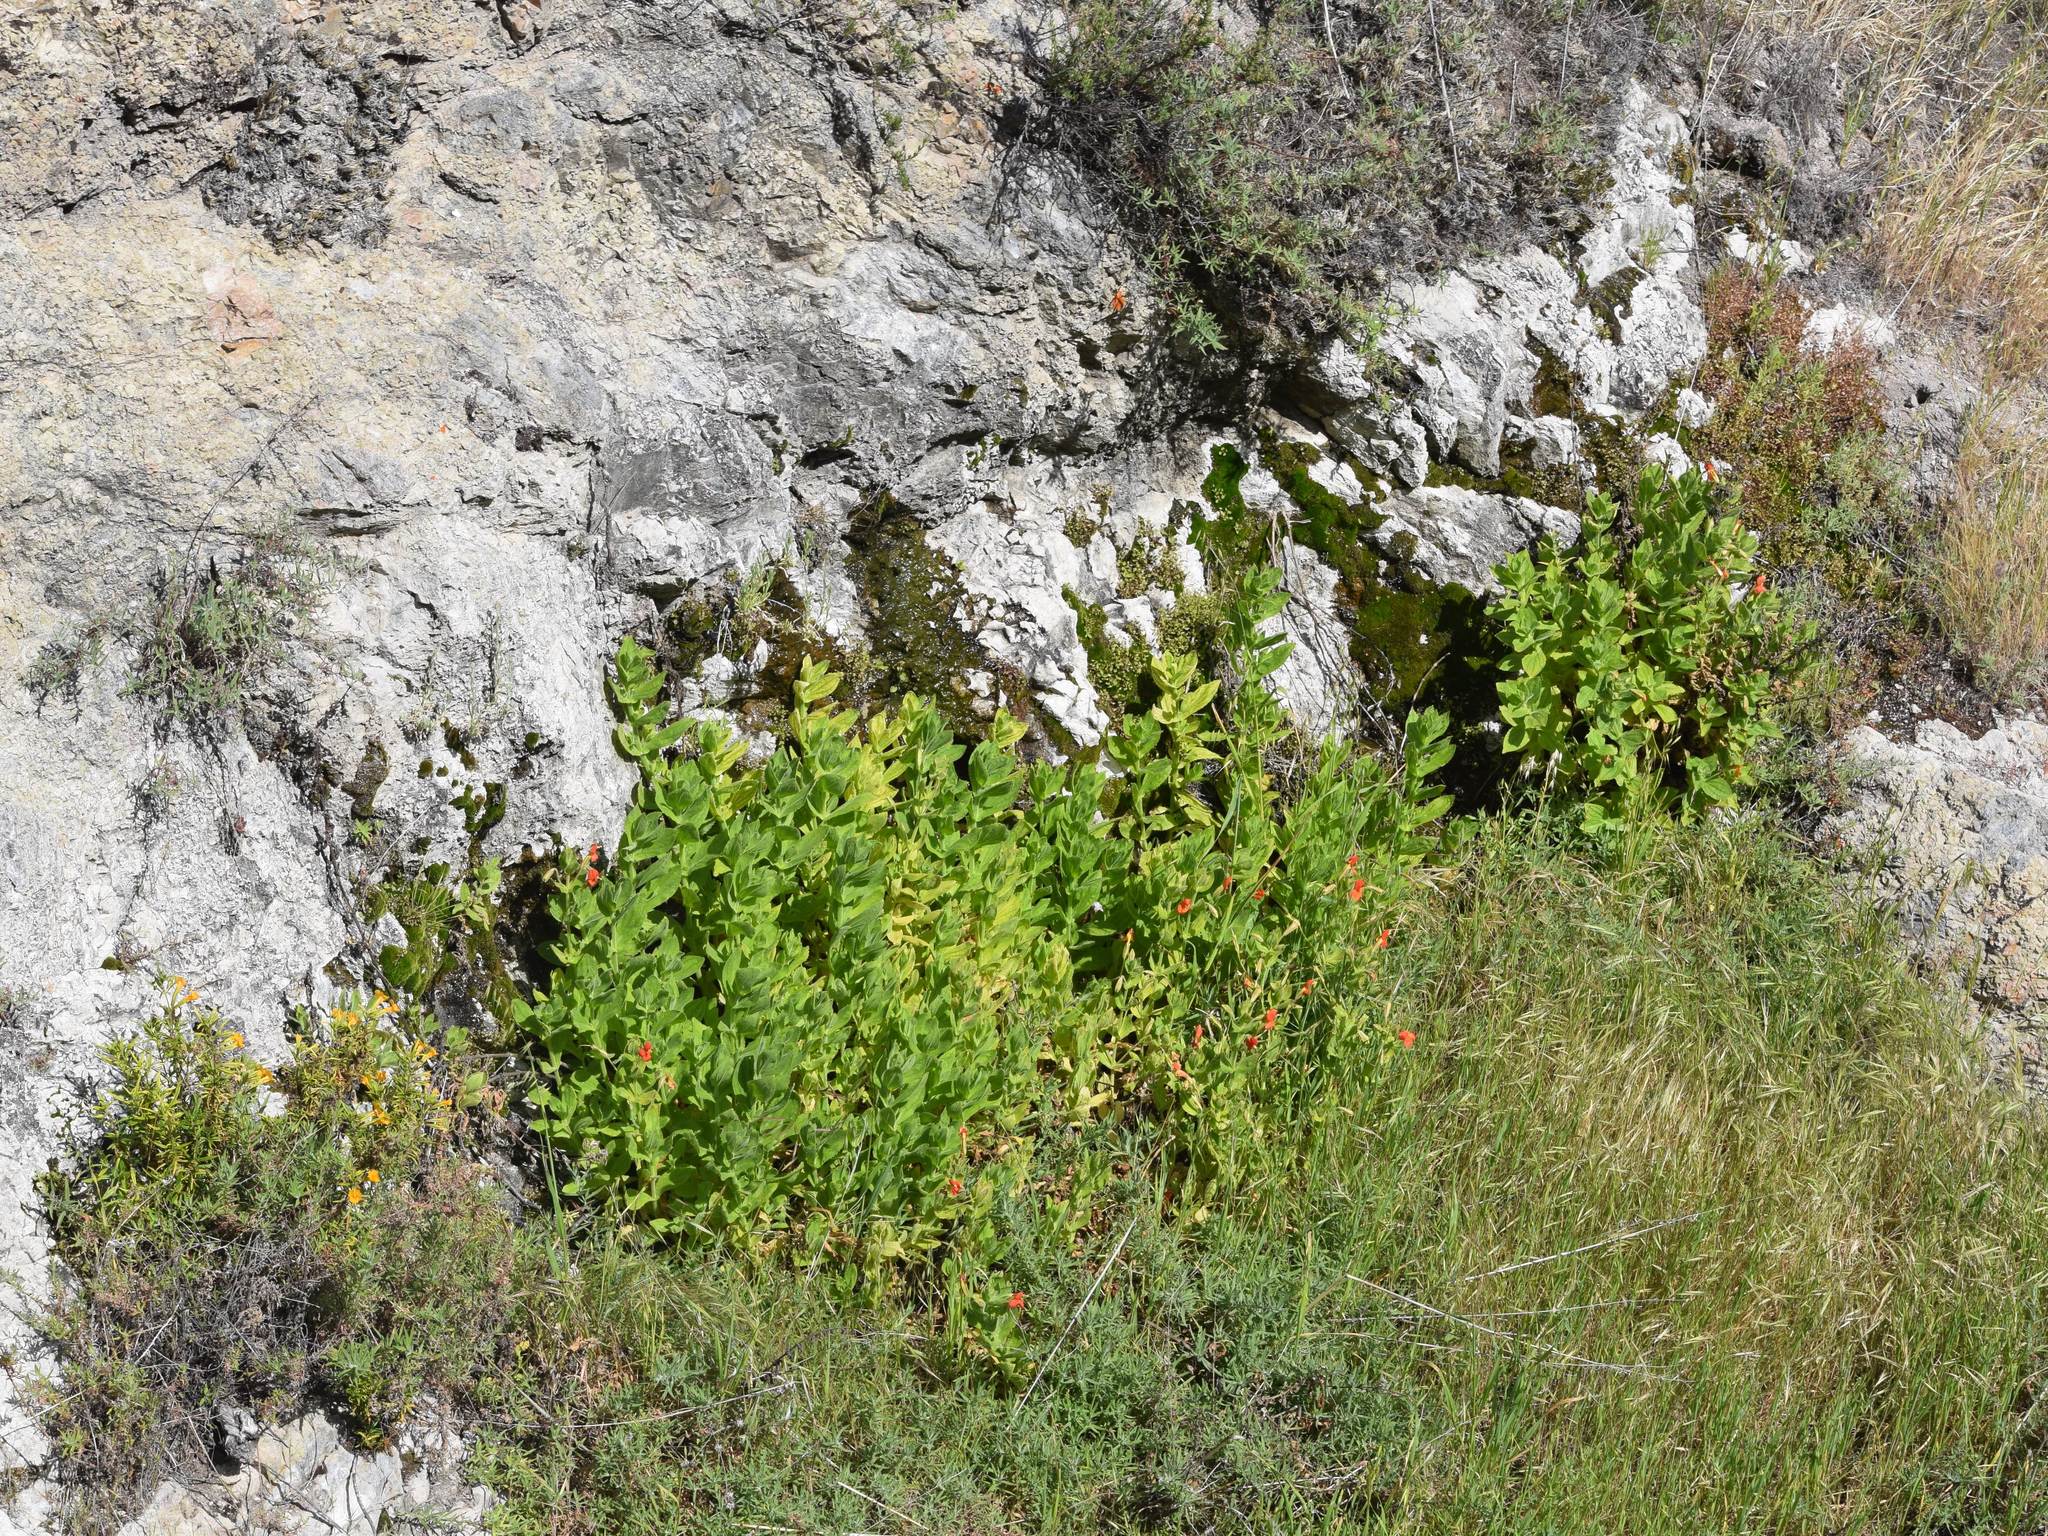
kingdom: Plantae
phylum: Tracheophyta
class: Magnoliopsida
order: Lamiales
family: Phrymaceae
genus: Erythranthe
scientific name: Erythranthe cardinalis
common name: Scarlet monkey-flower
